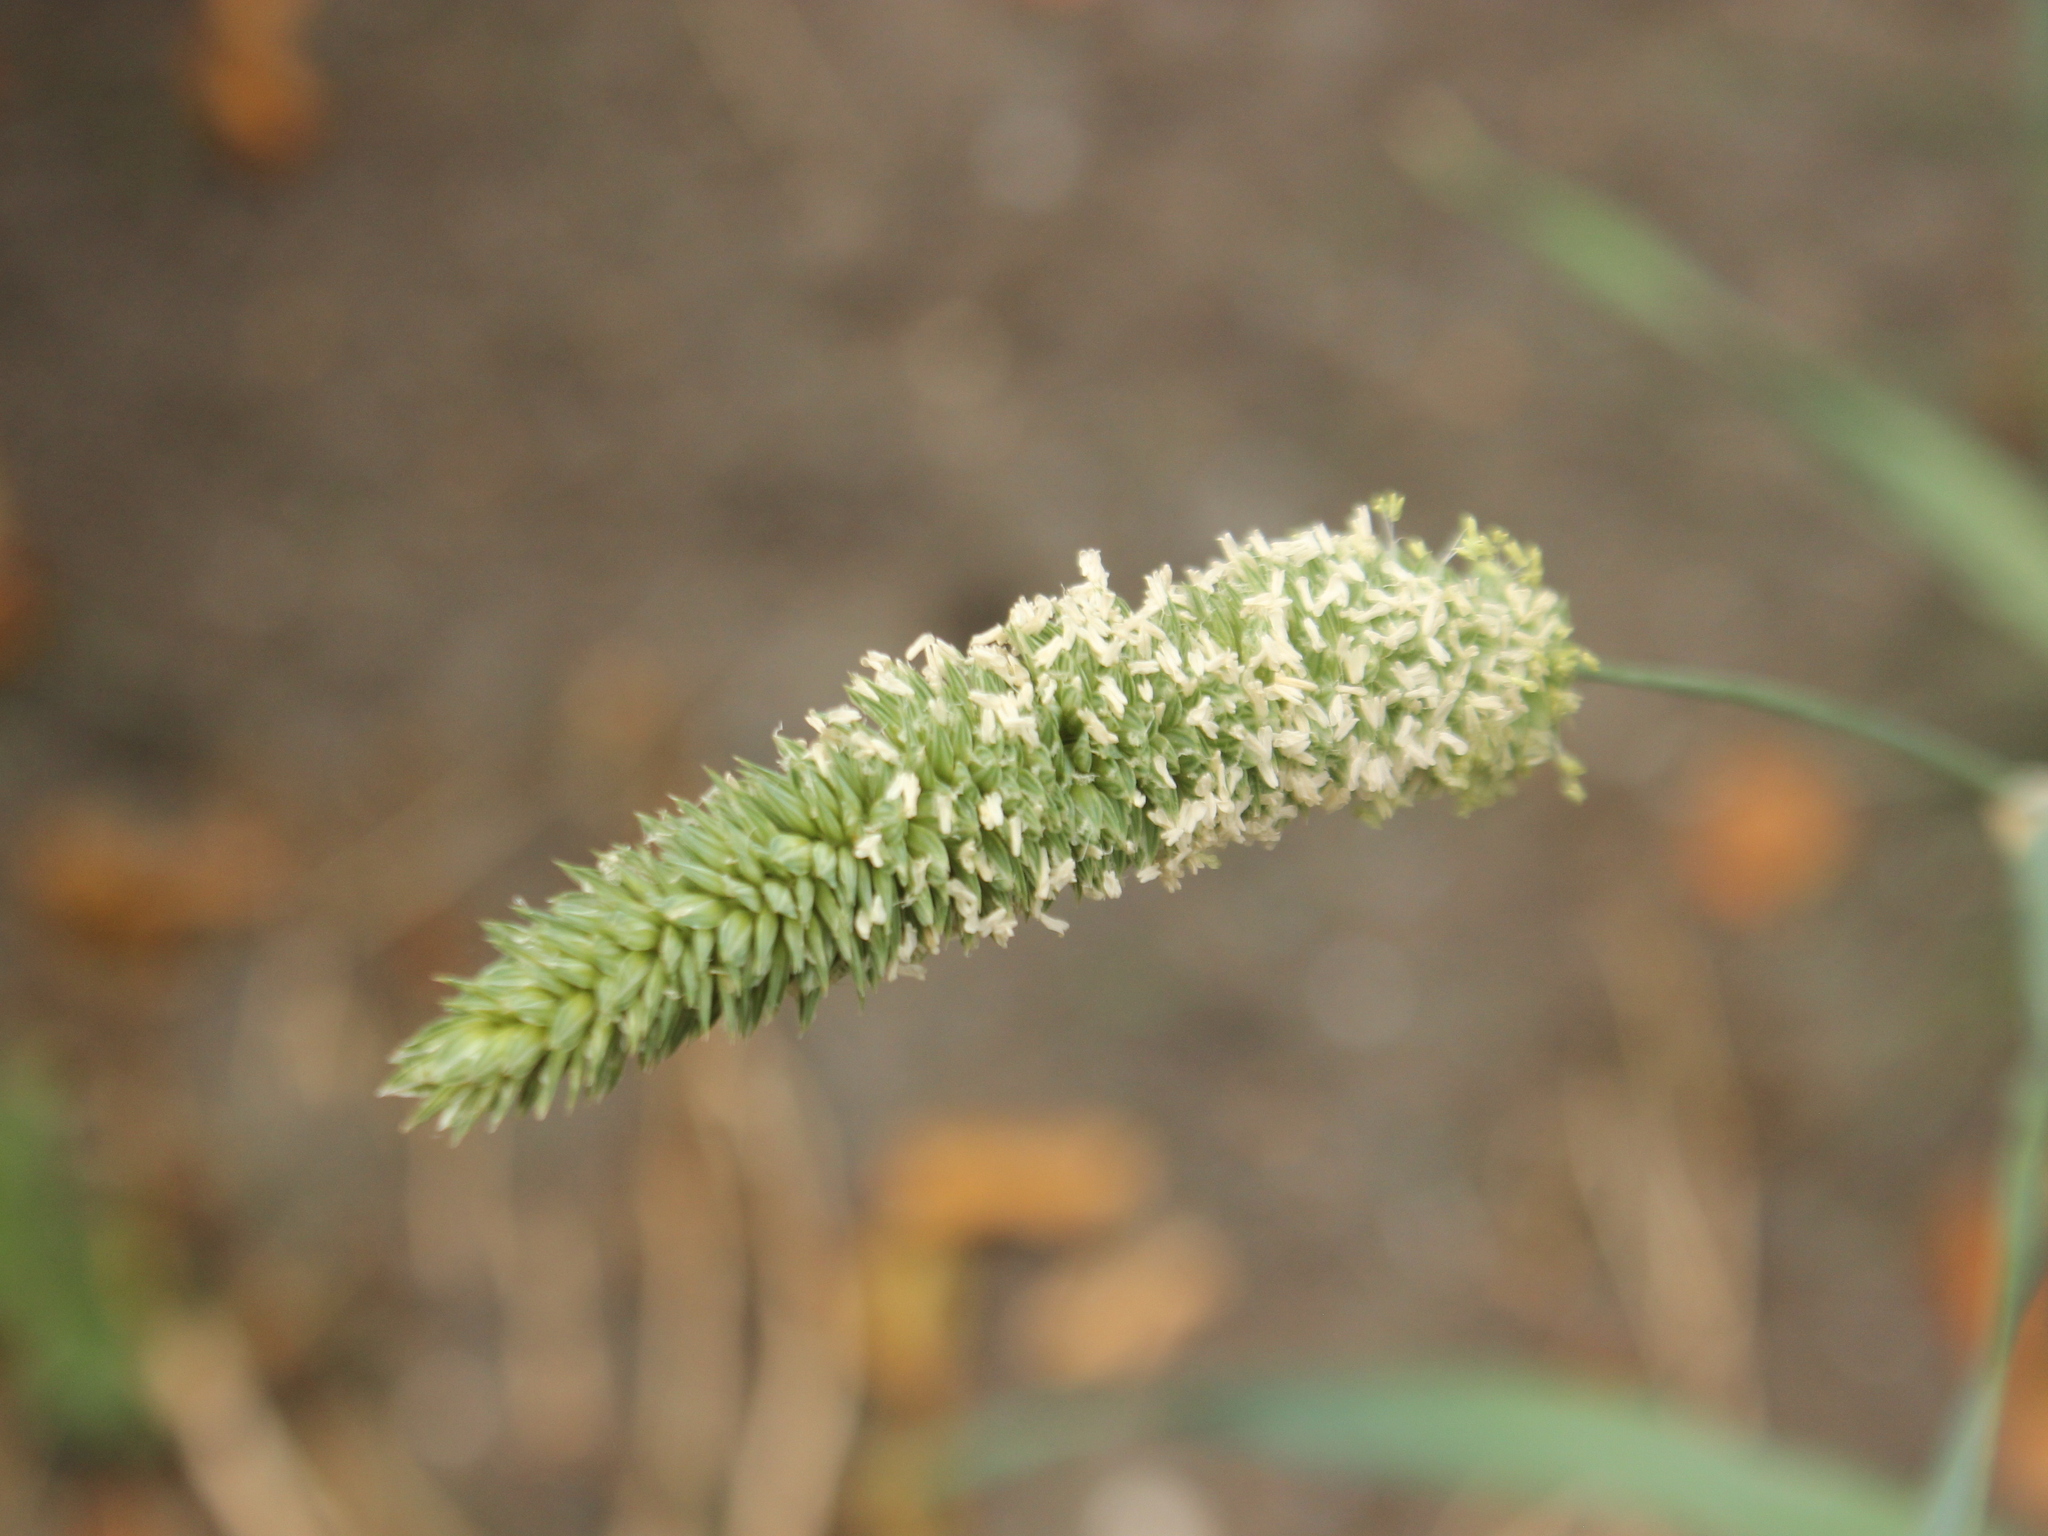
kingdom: Plantae
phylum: Tracheophyta
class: Liliopsida
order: Poales
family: Poaceae
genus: Phalaris
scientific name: Phalaris minor
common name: Littleseed canarygrass
